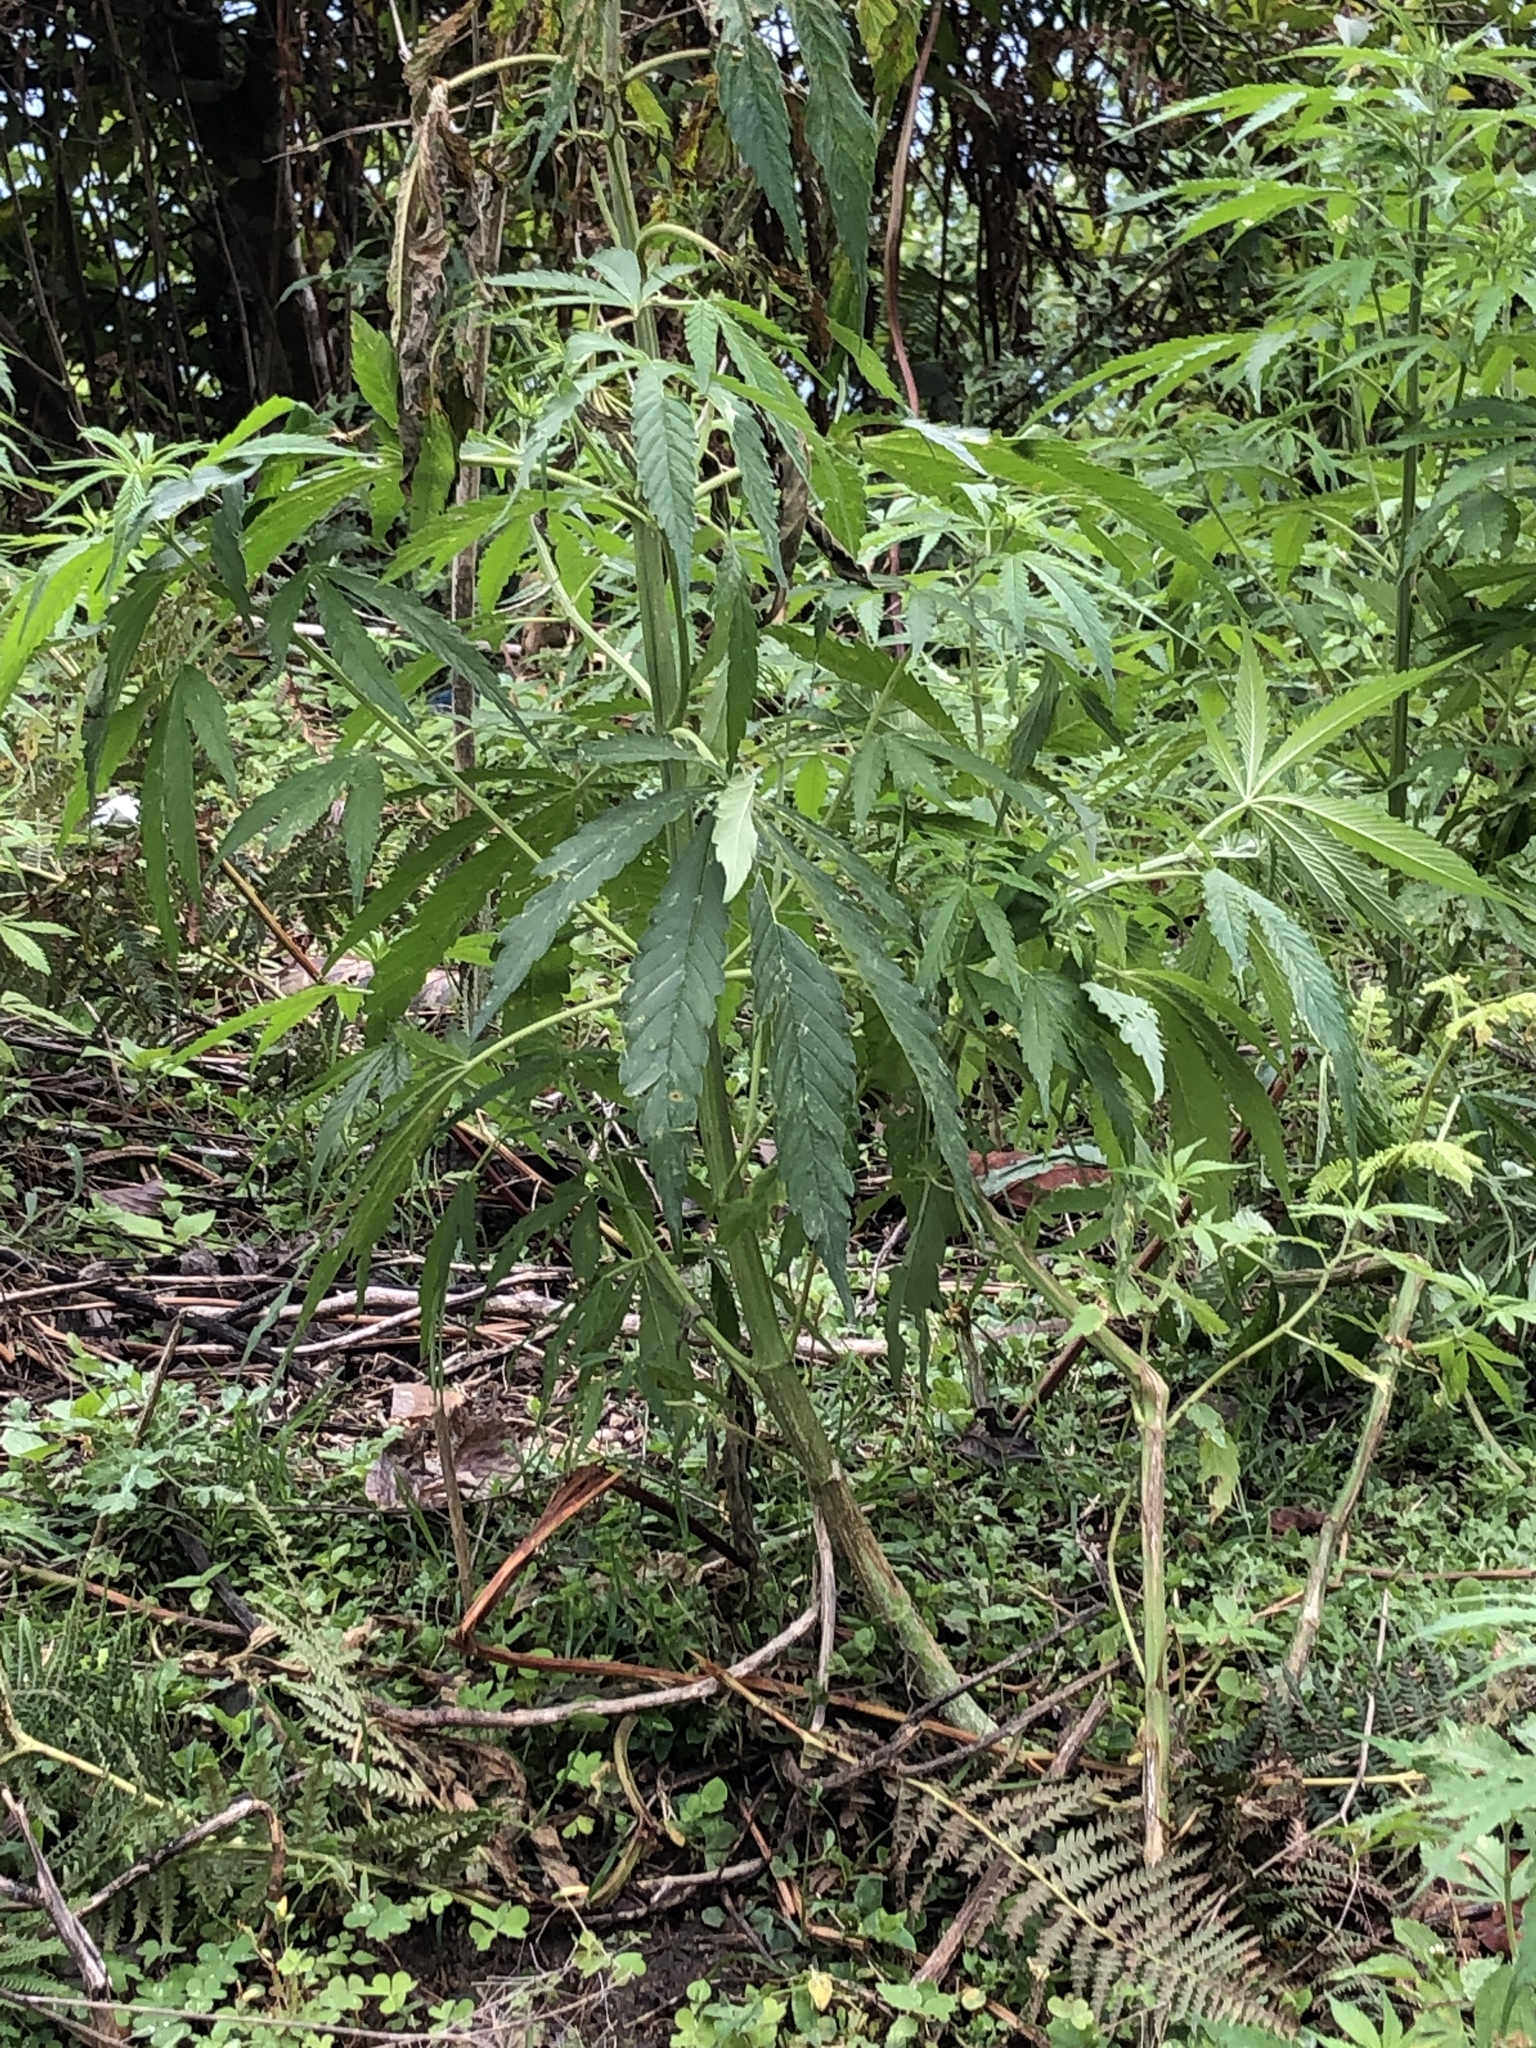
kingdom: Plantae
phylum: Tracheophyta
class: Magnoliopsida
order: Rosales
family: Cannabaceae
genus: Cannabis
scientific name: Cannabis sativa
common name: Hemp
